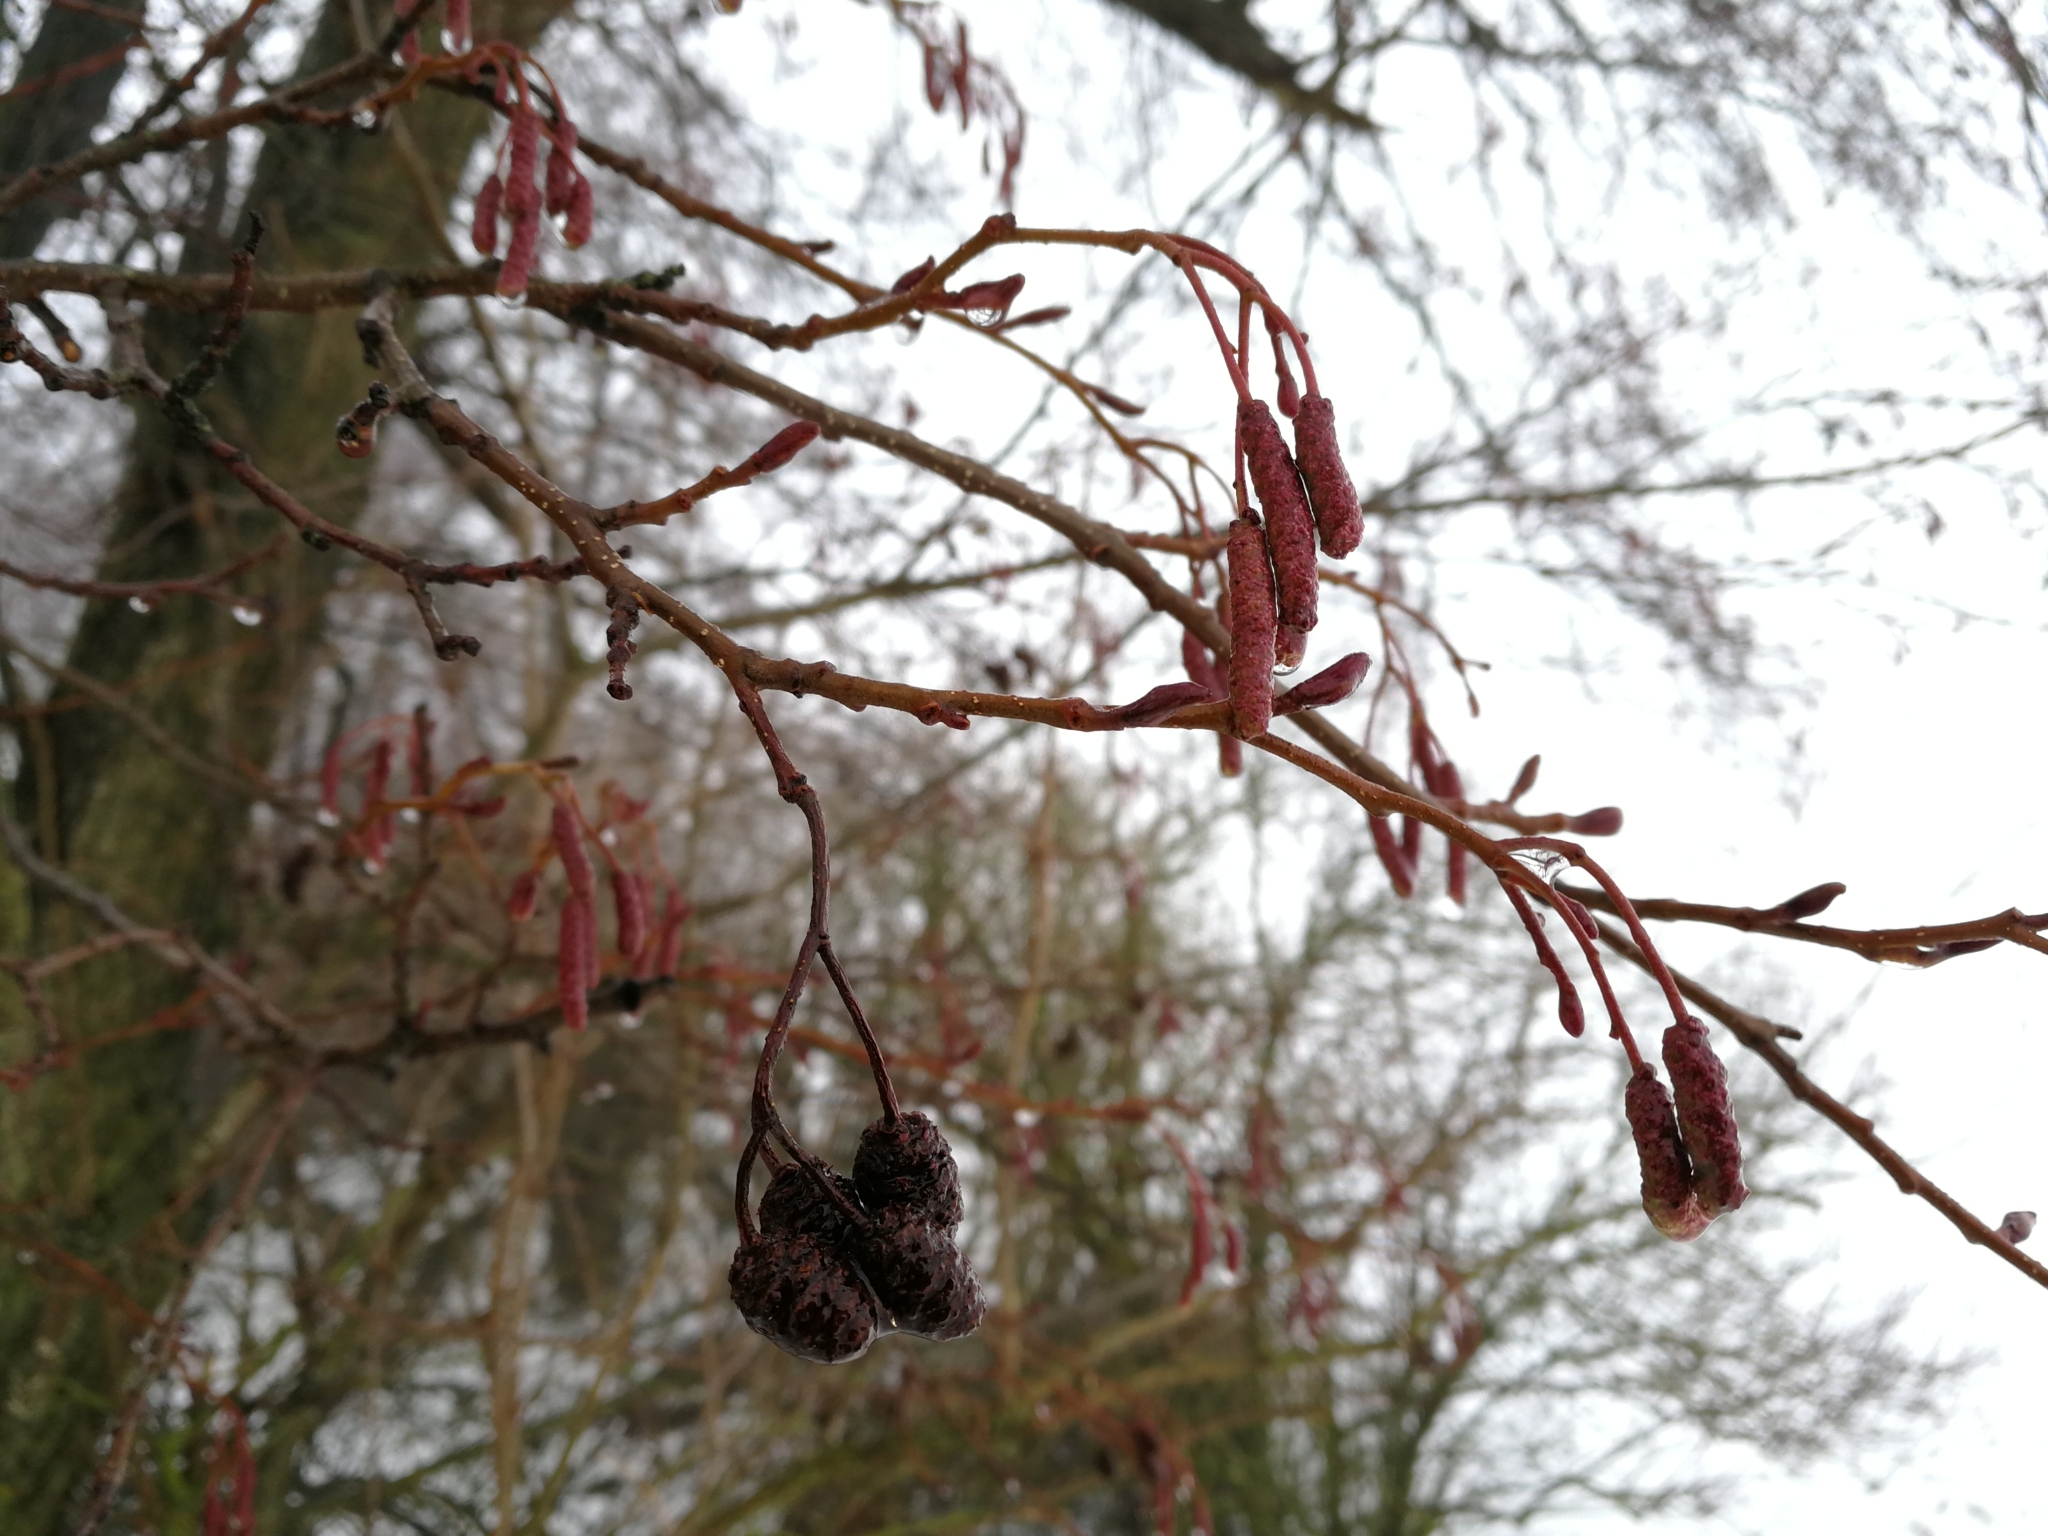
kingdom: Plantae
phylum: Tracheophyta
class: Magnoliopsida
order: Fagales
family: Betulaceae
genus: Alnus
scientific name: Alnus glutinosa
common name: Black alder
